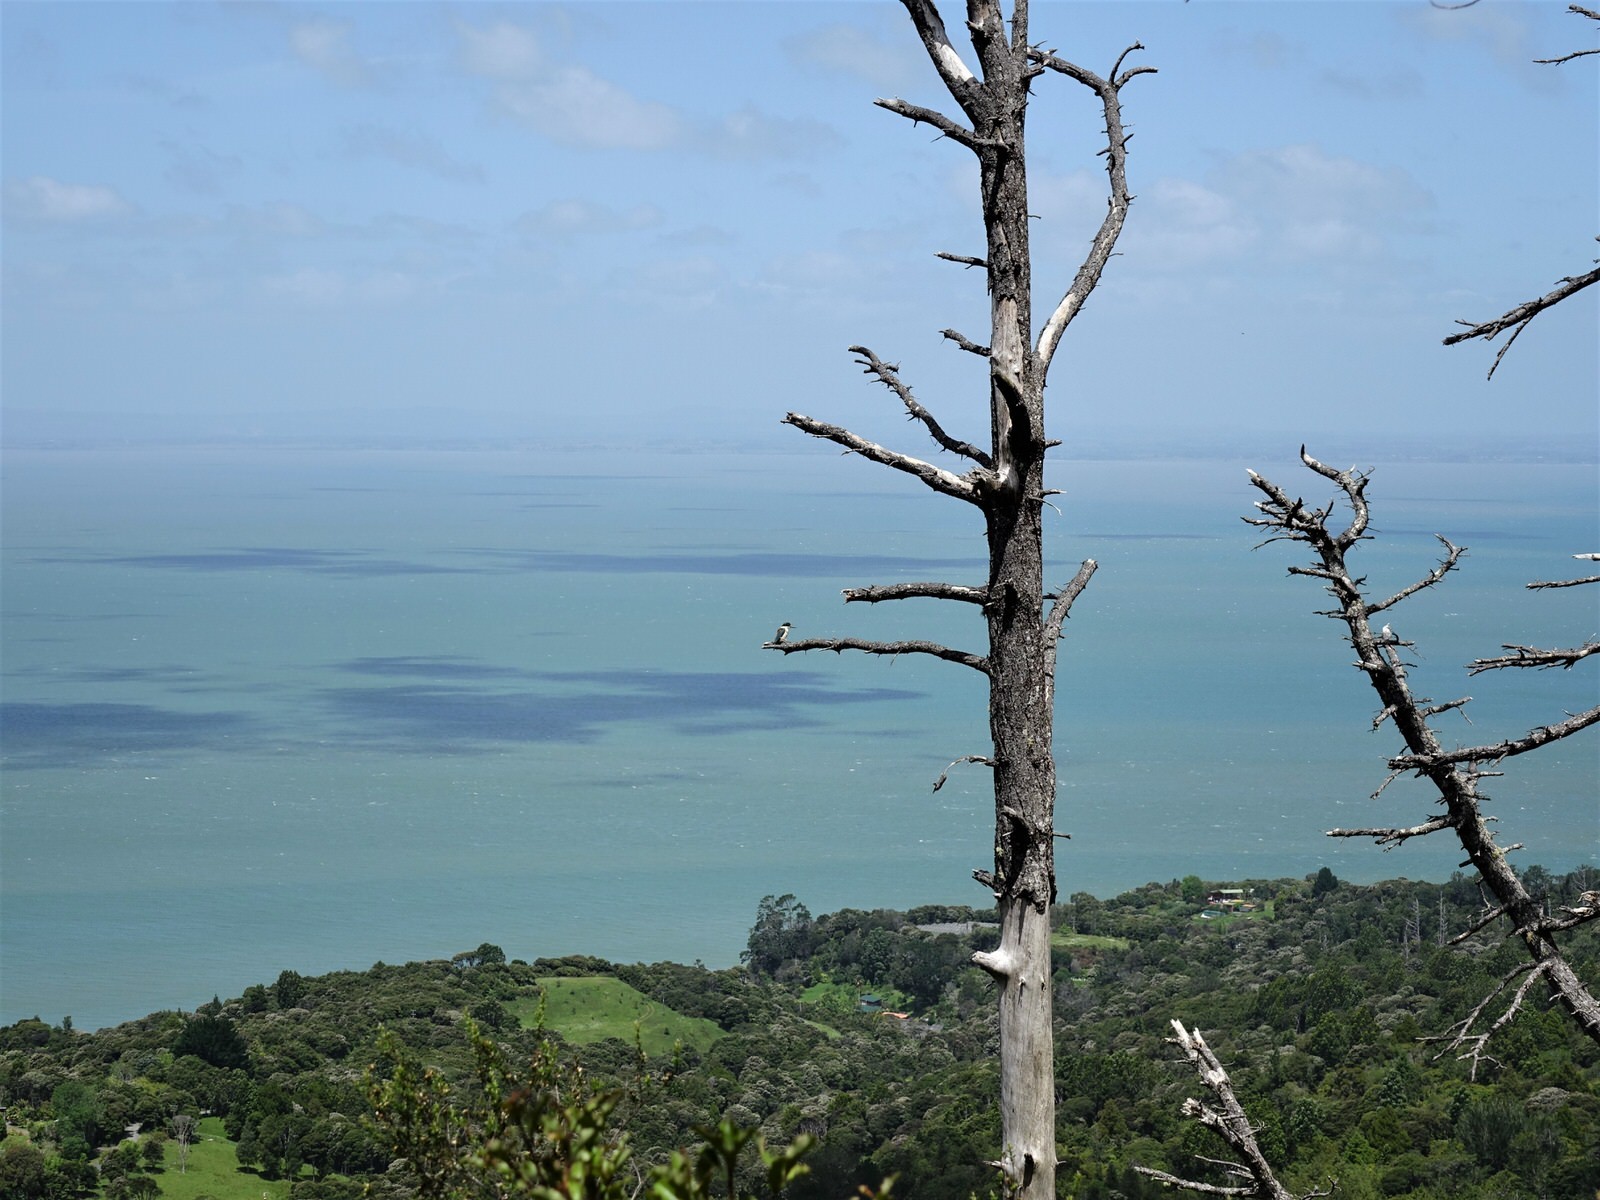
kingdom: Animalia
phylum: Chordata
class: Aves
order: Coraciiformes
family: Alcedinidae
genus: Todiramphus
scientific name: Todiramphus sanctus
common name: Sacred kingfisher
